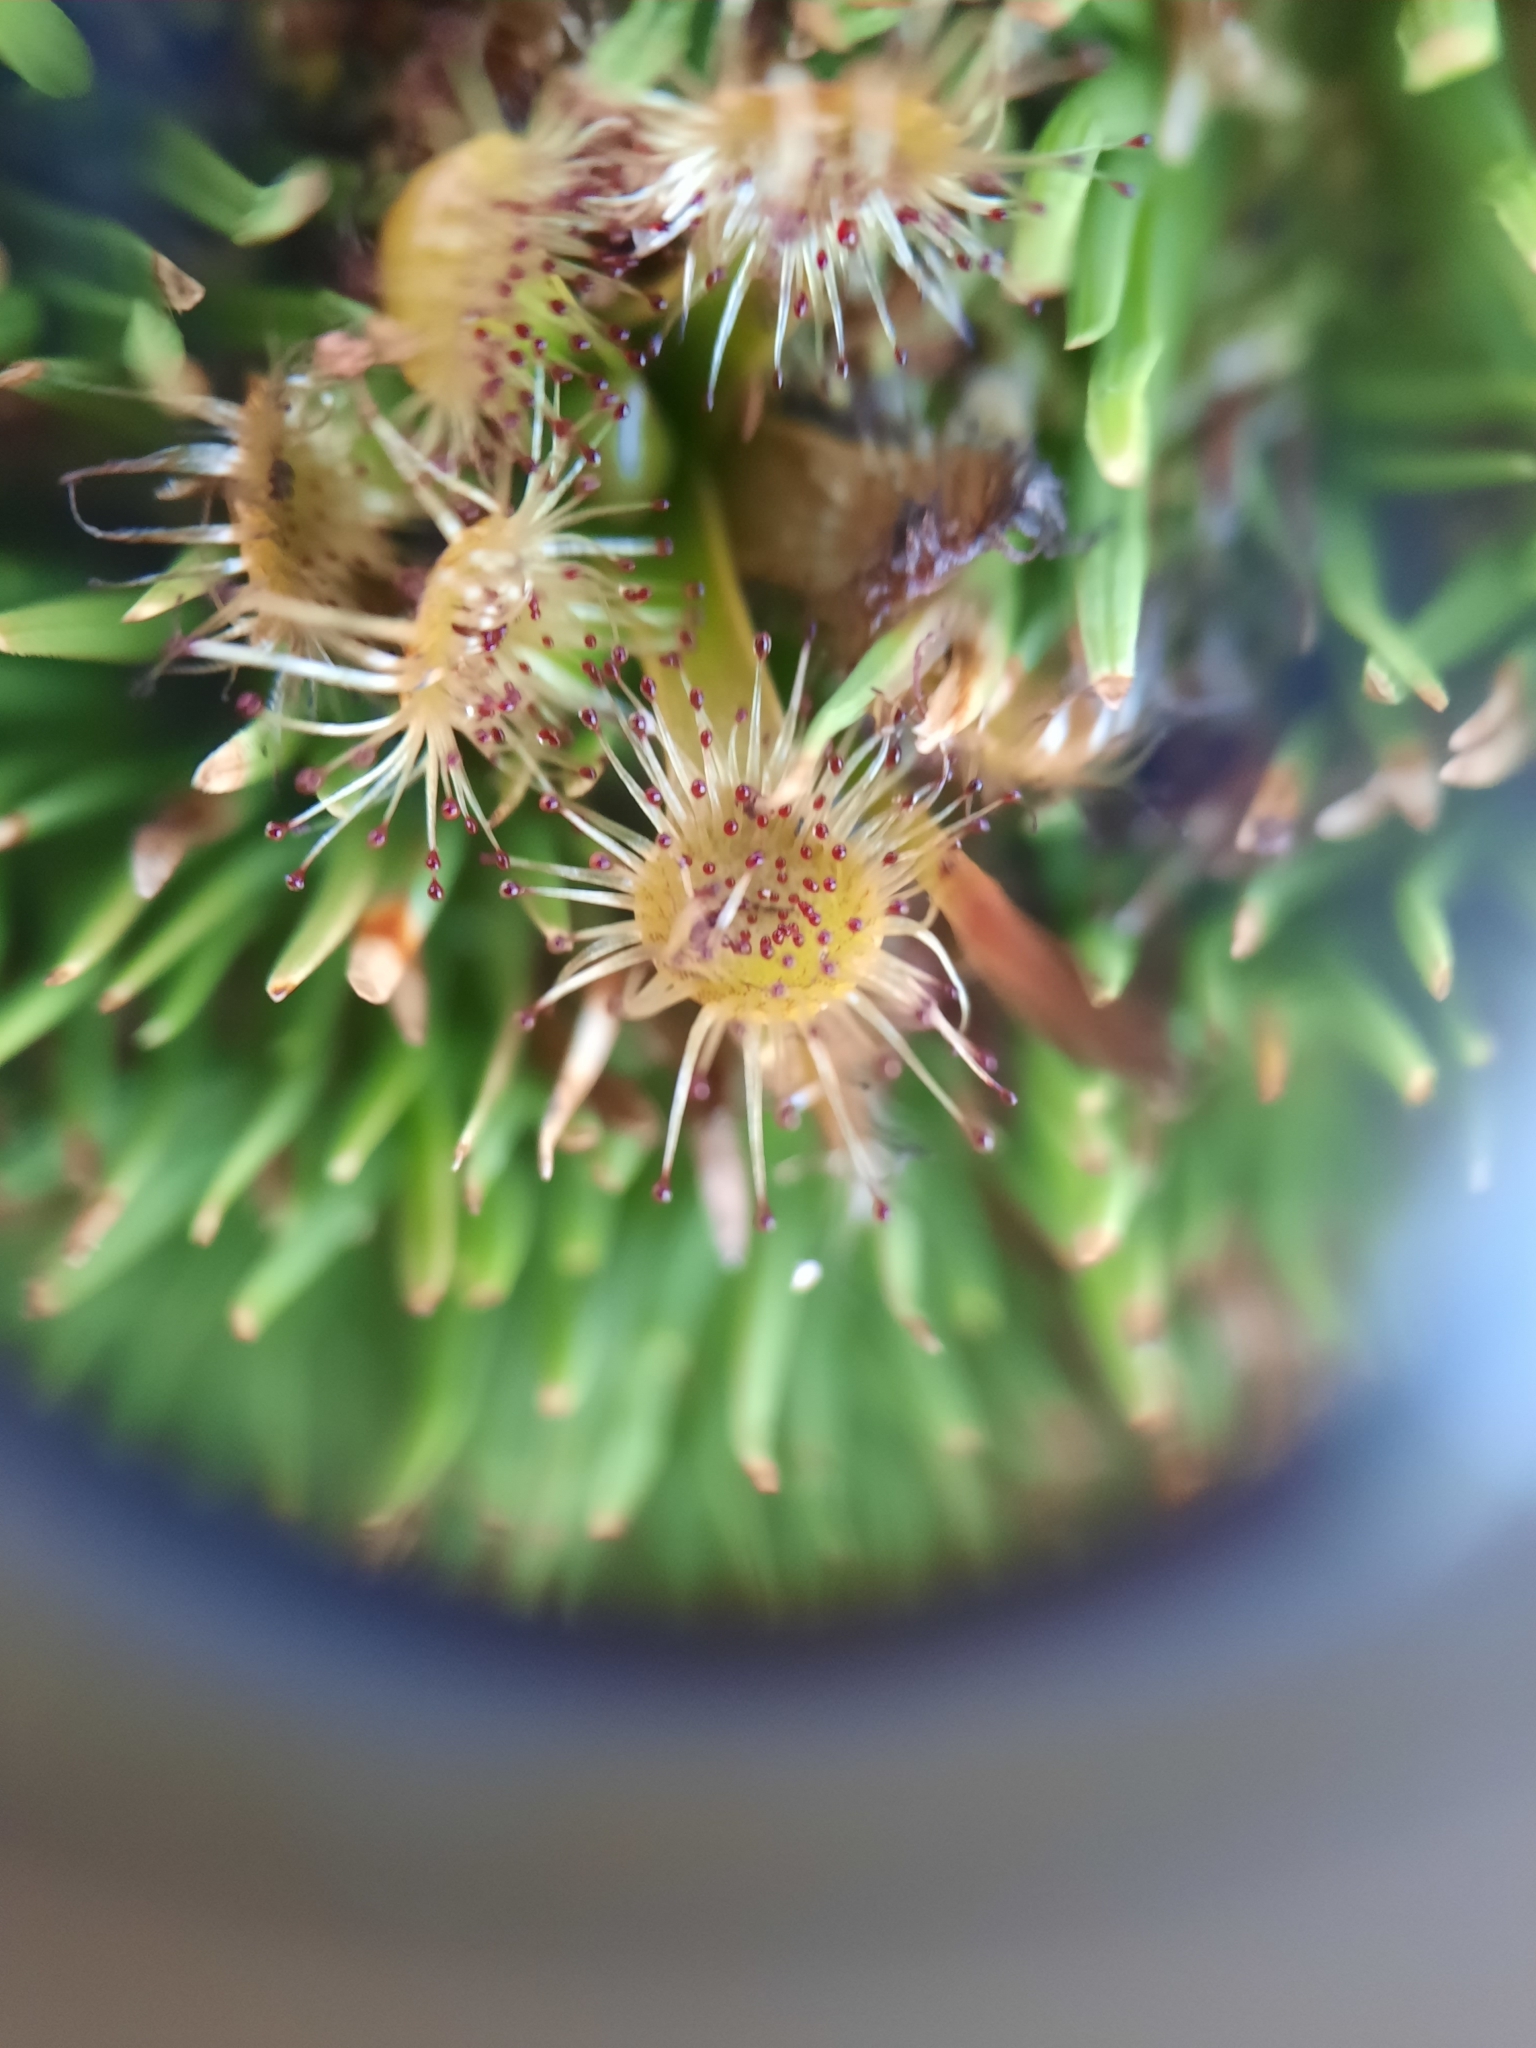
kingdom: Plantae
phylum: Tracheophyta
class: Magnoliopsida
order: Caryophyllales
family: Droseraceae
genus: Drosera
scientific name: Drosera stenopetala
